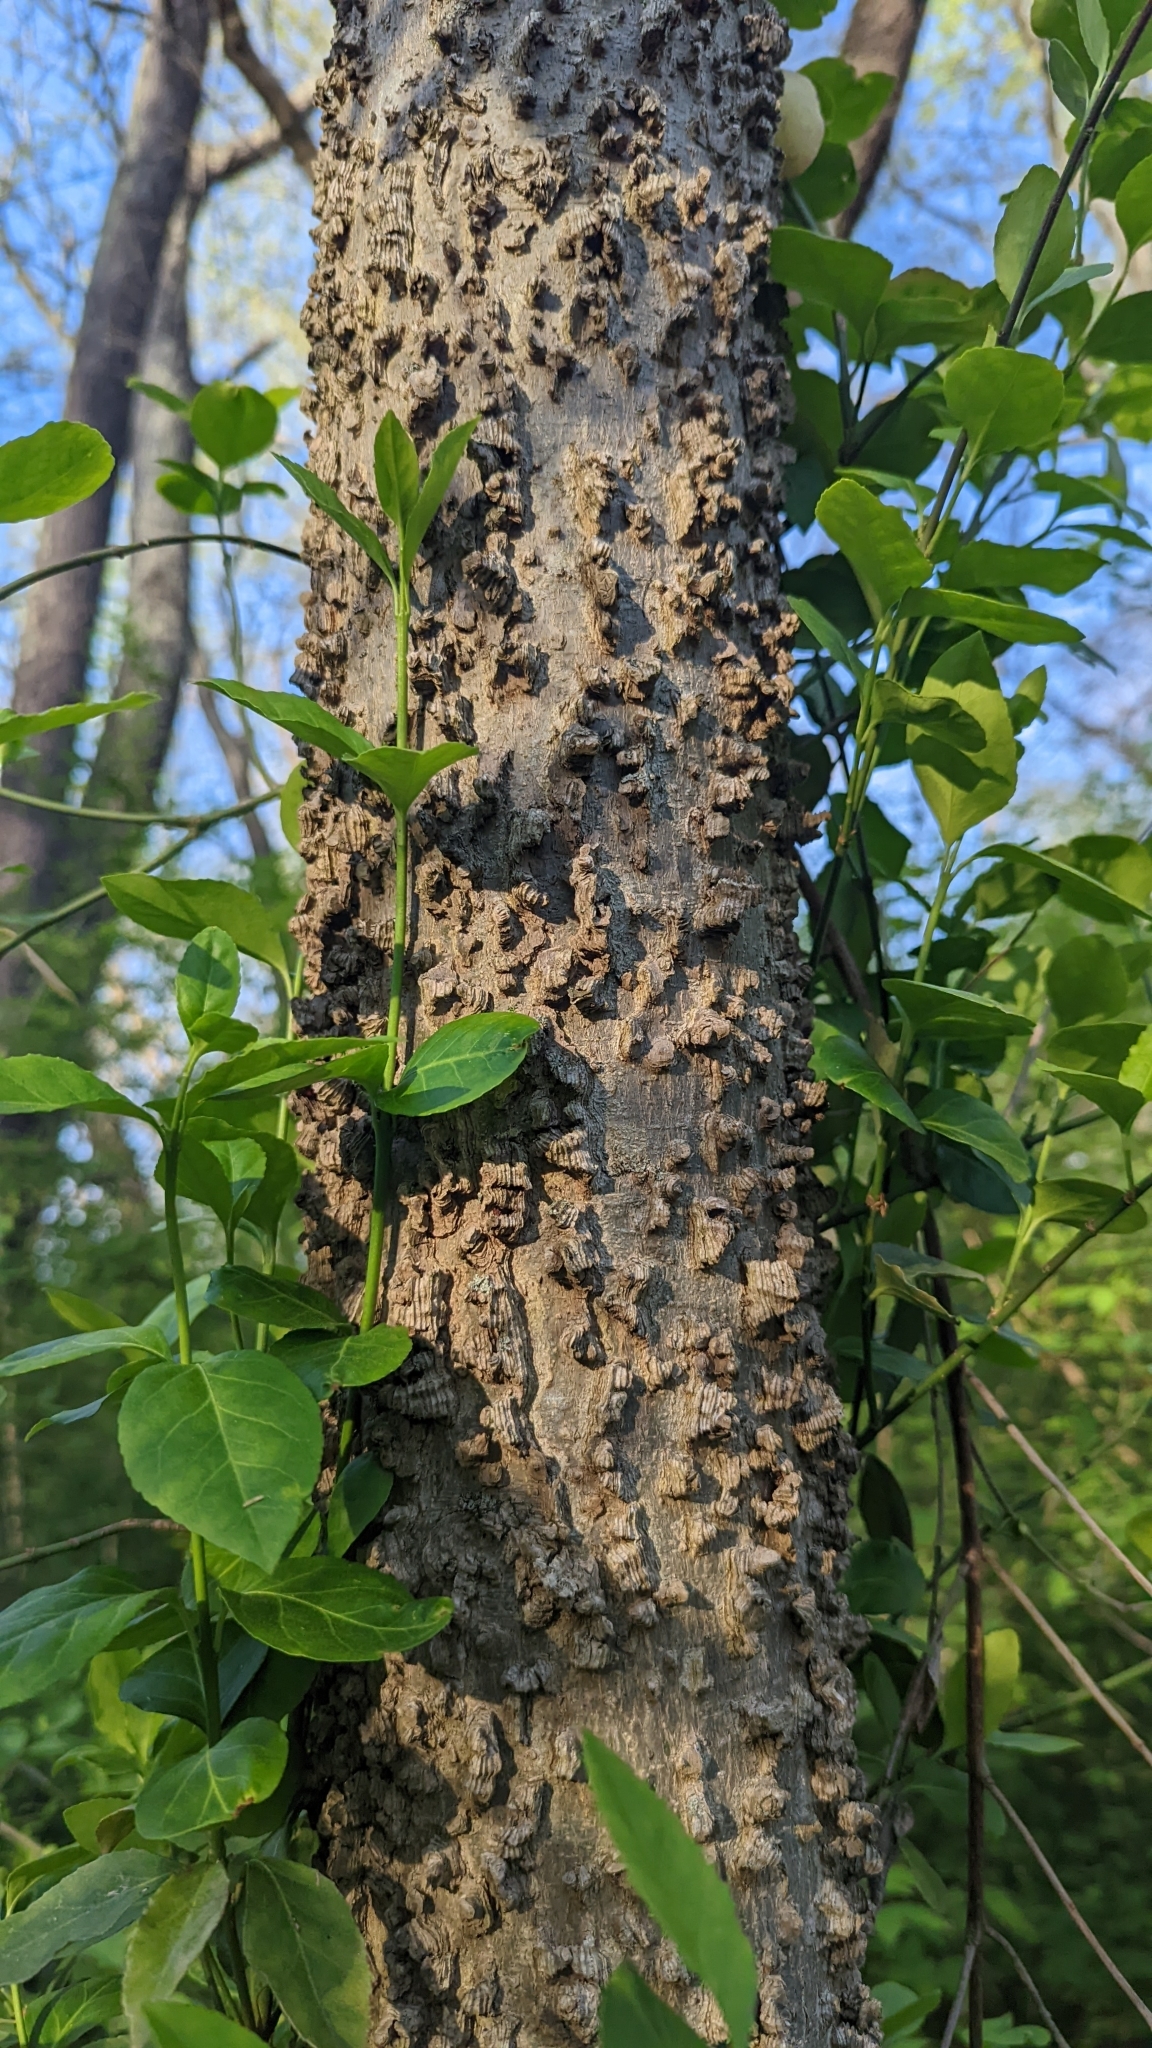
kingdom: Plantae
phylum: Tracheophyta
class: Magnoliopsida
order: Rosales
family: Cannabaceae
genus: Celtis
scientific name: Celtis occidentalis
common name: Common hackberry
